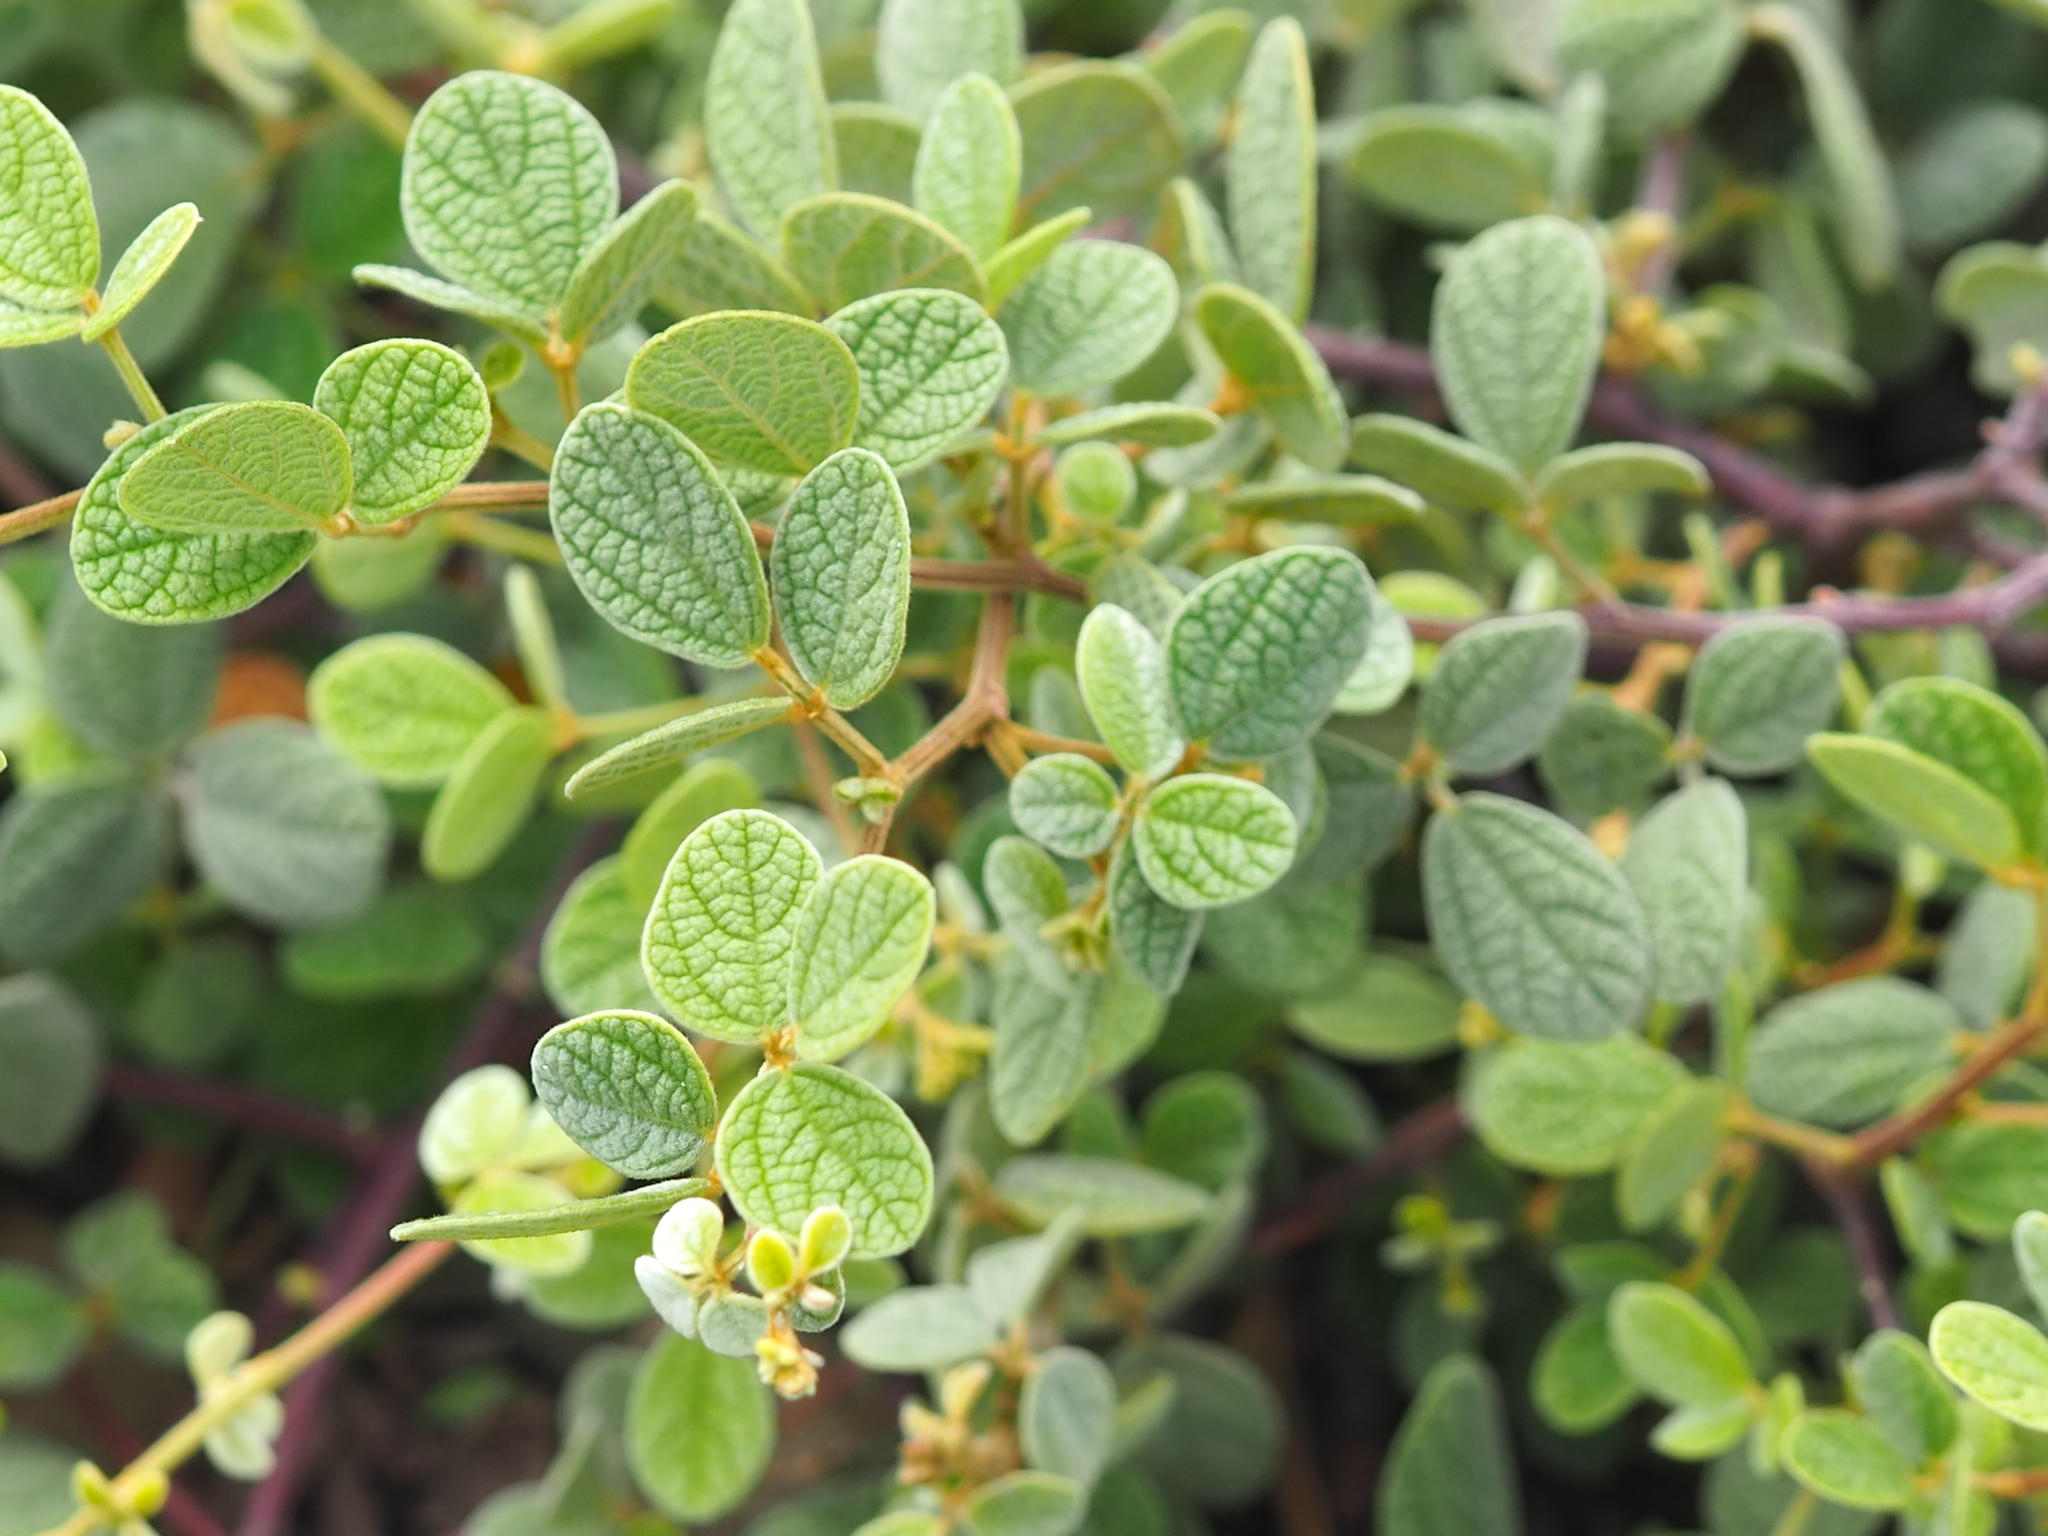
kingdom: Plantae
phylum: Tracheophyta
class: Magnoliopsida
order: Fabales
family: Fabaceae
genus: Cajanus
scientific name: Cajanus scarabaeoides
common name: Showy pigeonpea
